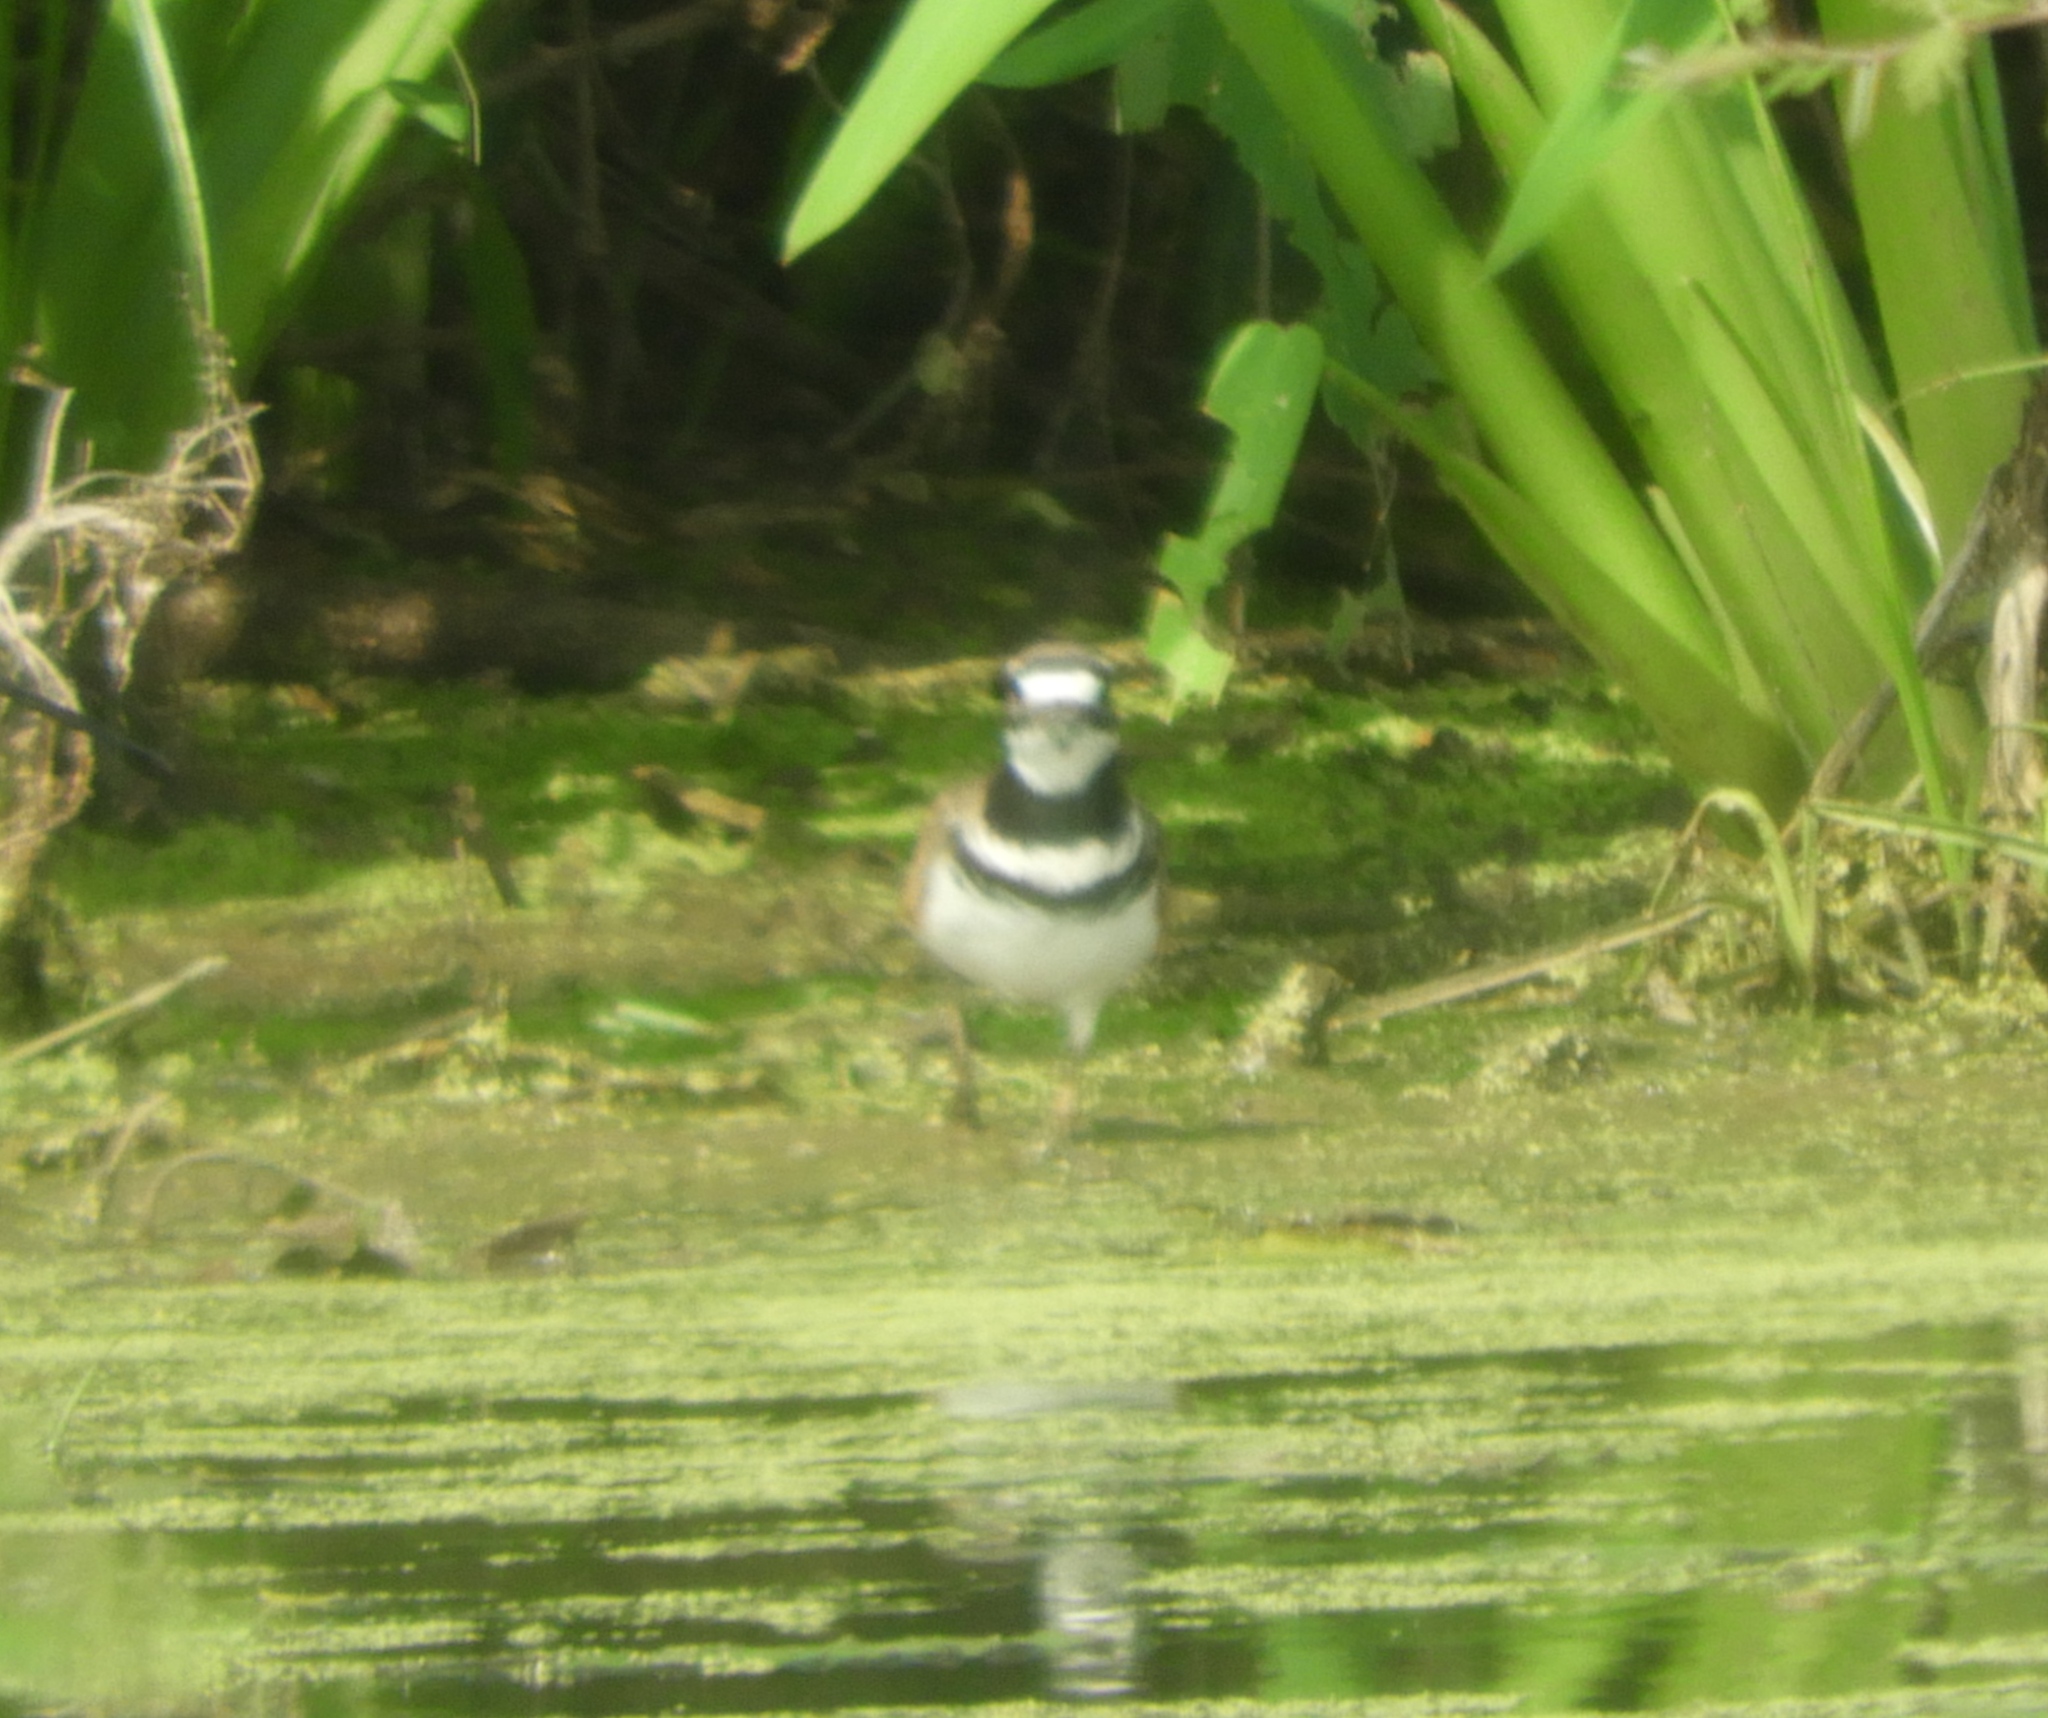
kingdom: Animalia
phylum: Chordata
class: Aves
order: Charadriiformes
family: Charadriidae
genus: Charadrius
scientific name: Charadrius vociferus
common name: Killdeer
